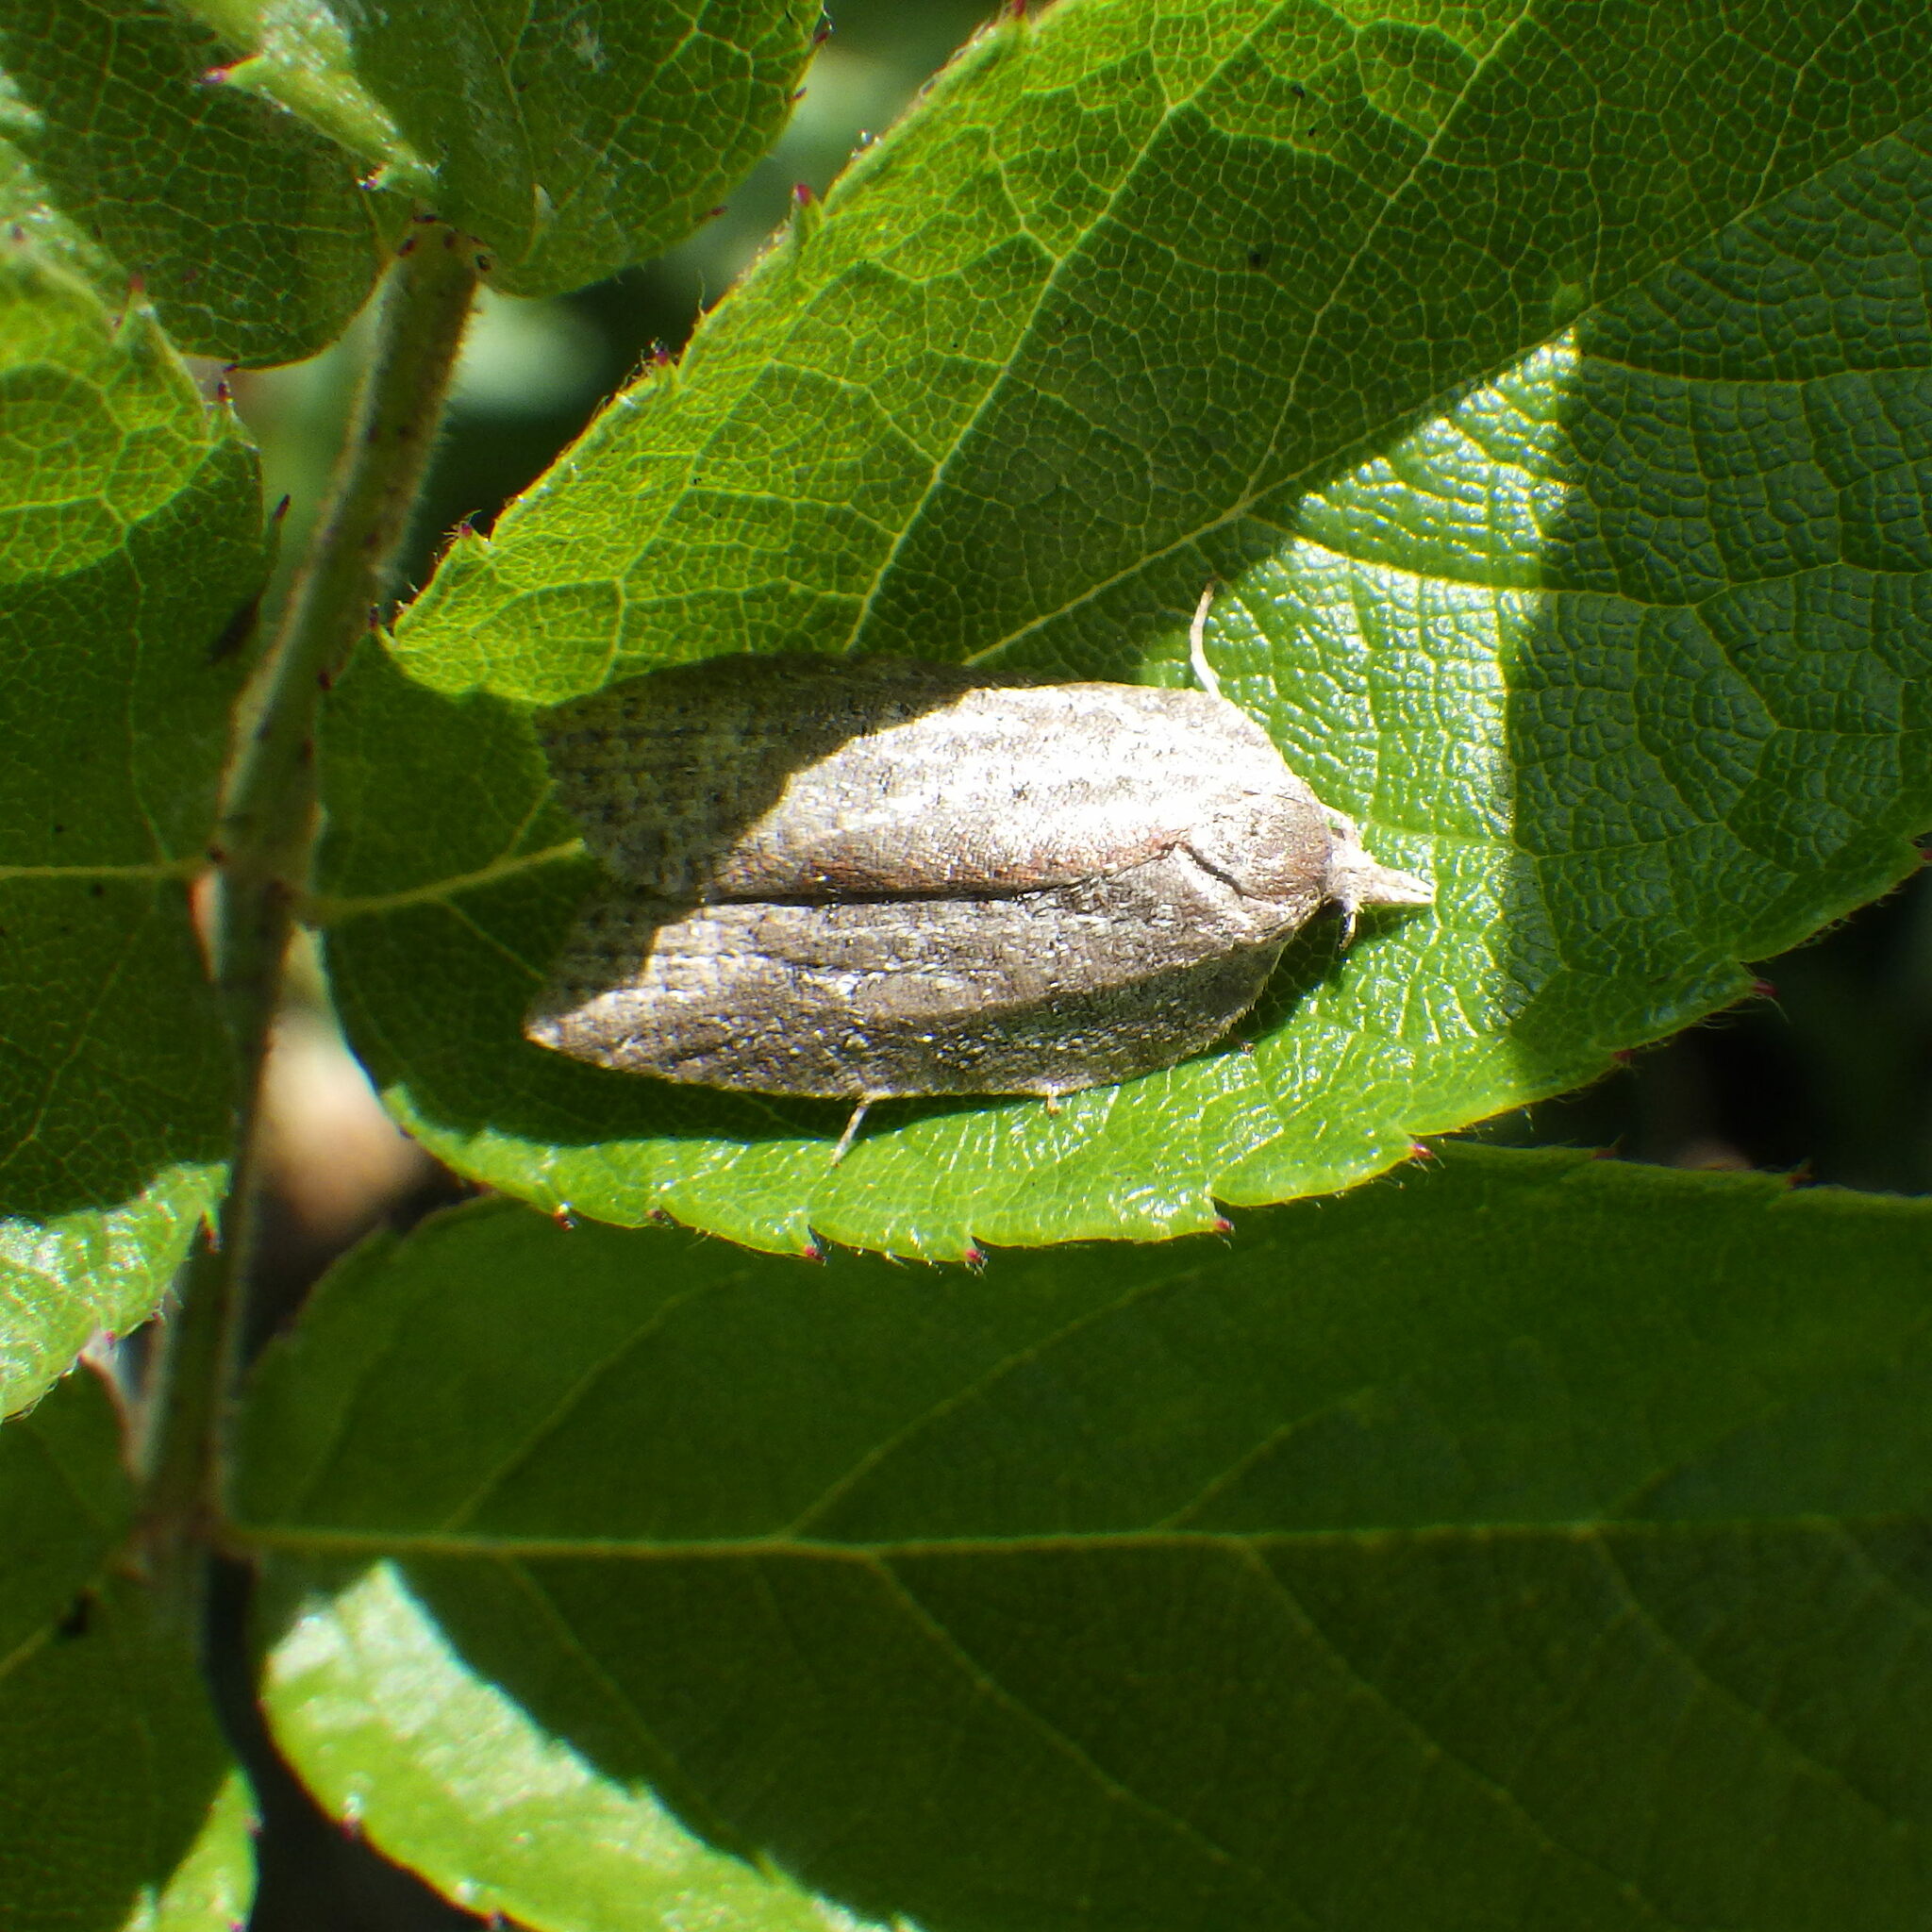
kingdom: Animalia
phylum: Arthropoda
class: Insecta
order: Lepidoptera
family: Tortricidae
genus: Amorbia
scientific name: Amorbia humerosana
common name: White-lined leafroller moth
